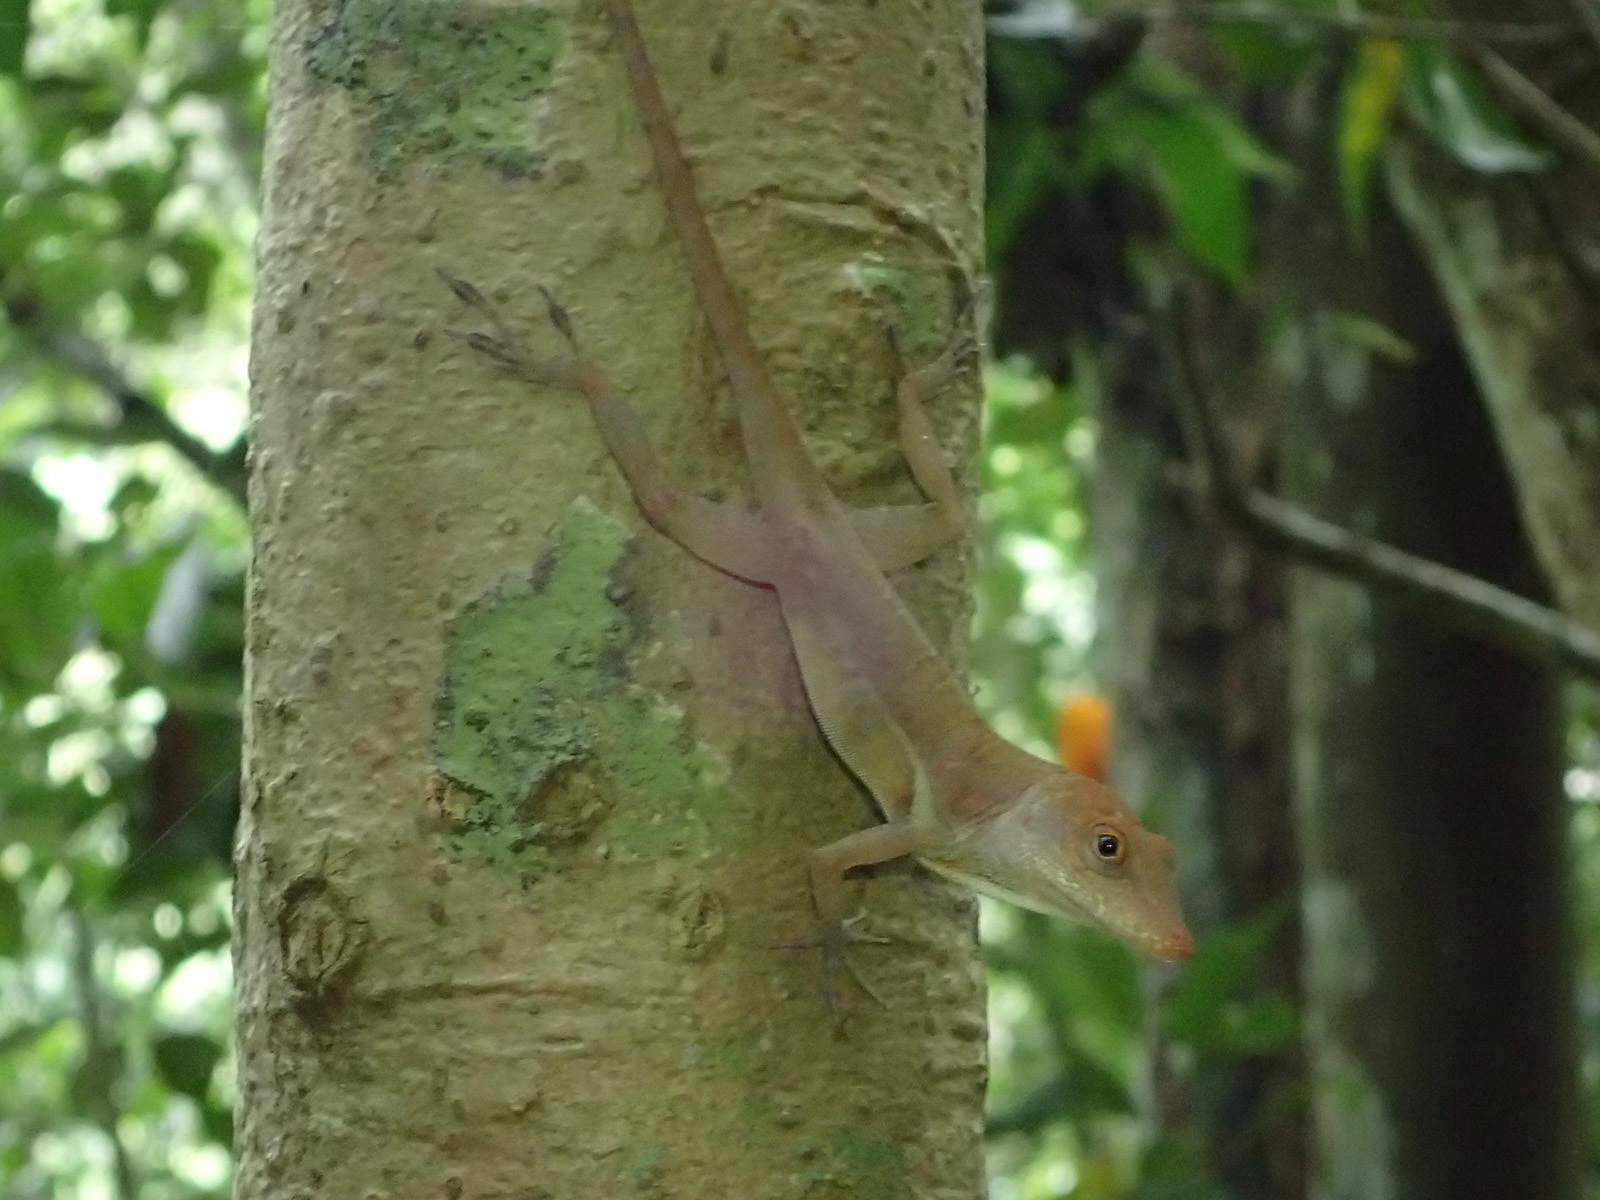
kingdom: Animalia
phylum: Chordata
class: Squamata
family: Dactyloidae
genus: Anolis
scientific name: Anolis lineatopus
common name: Stripefoot anole
